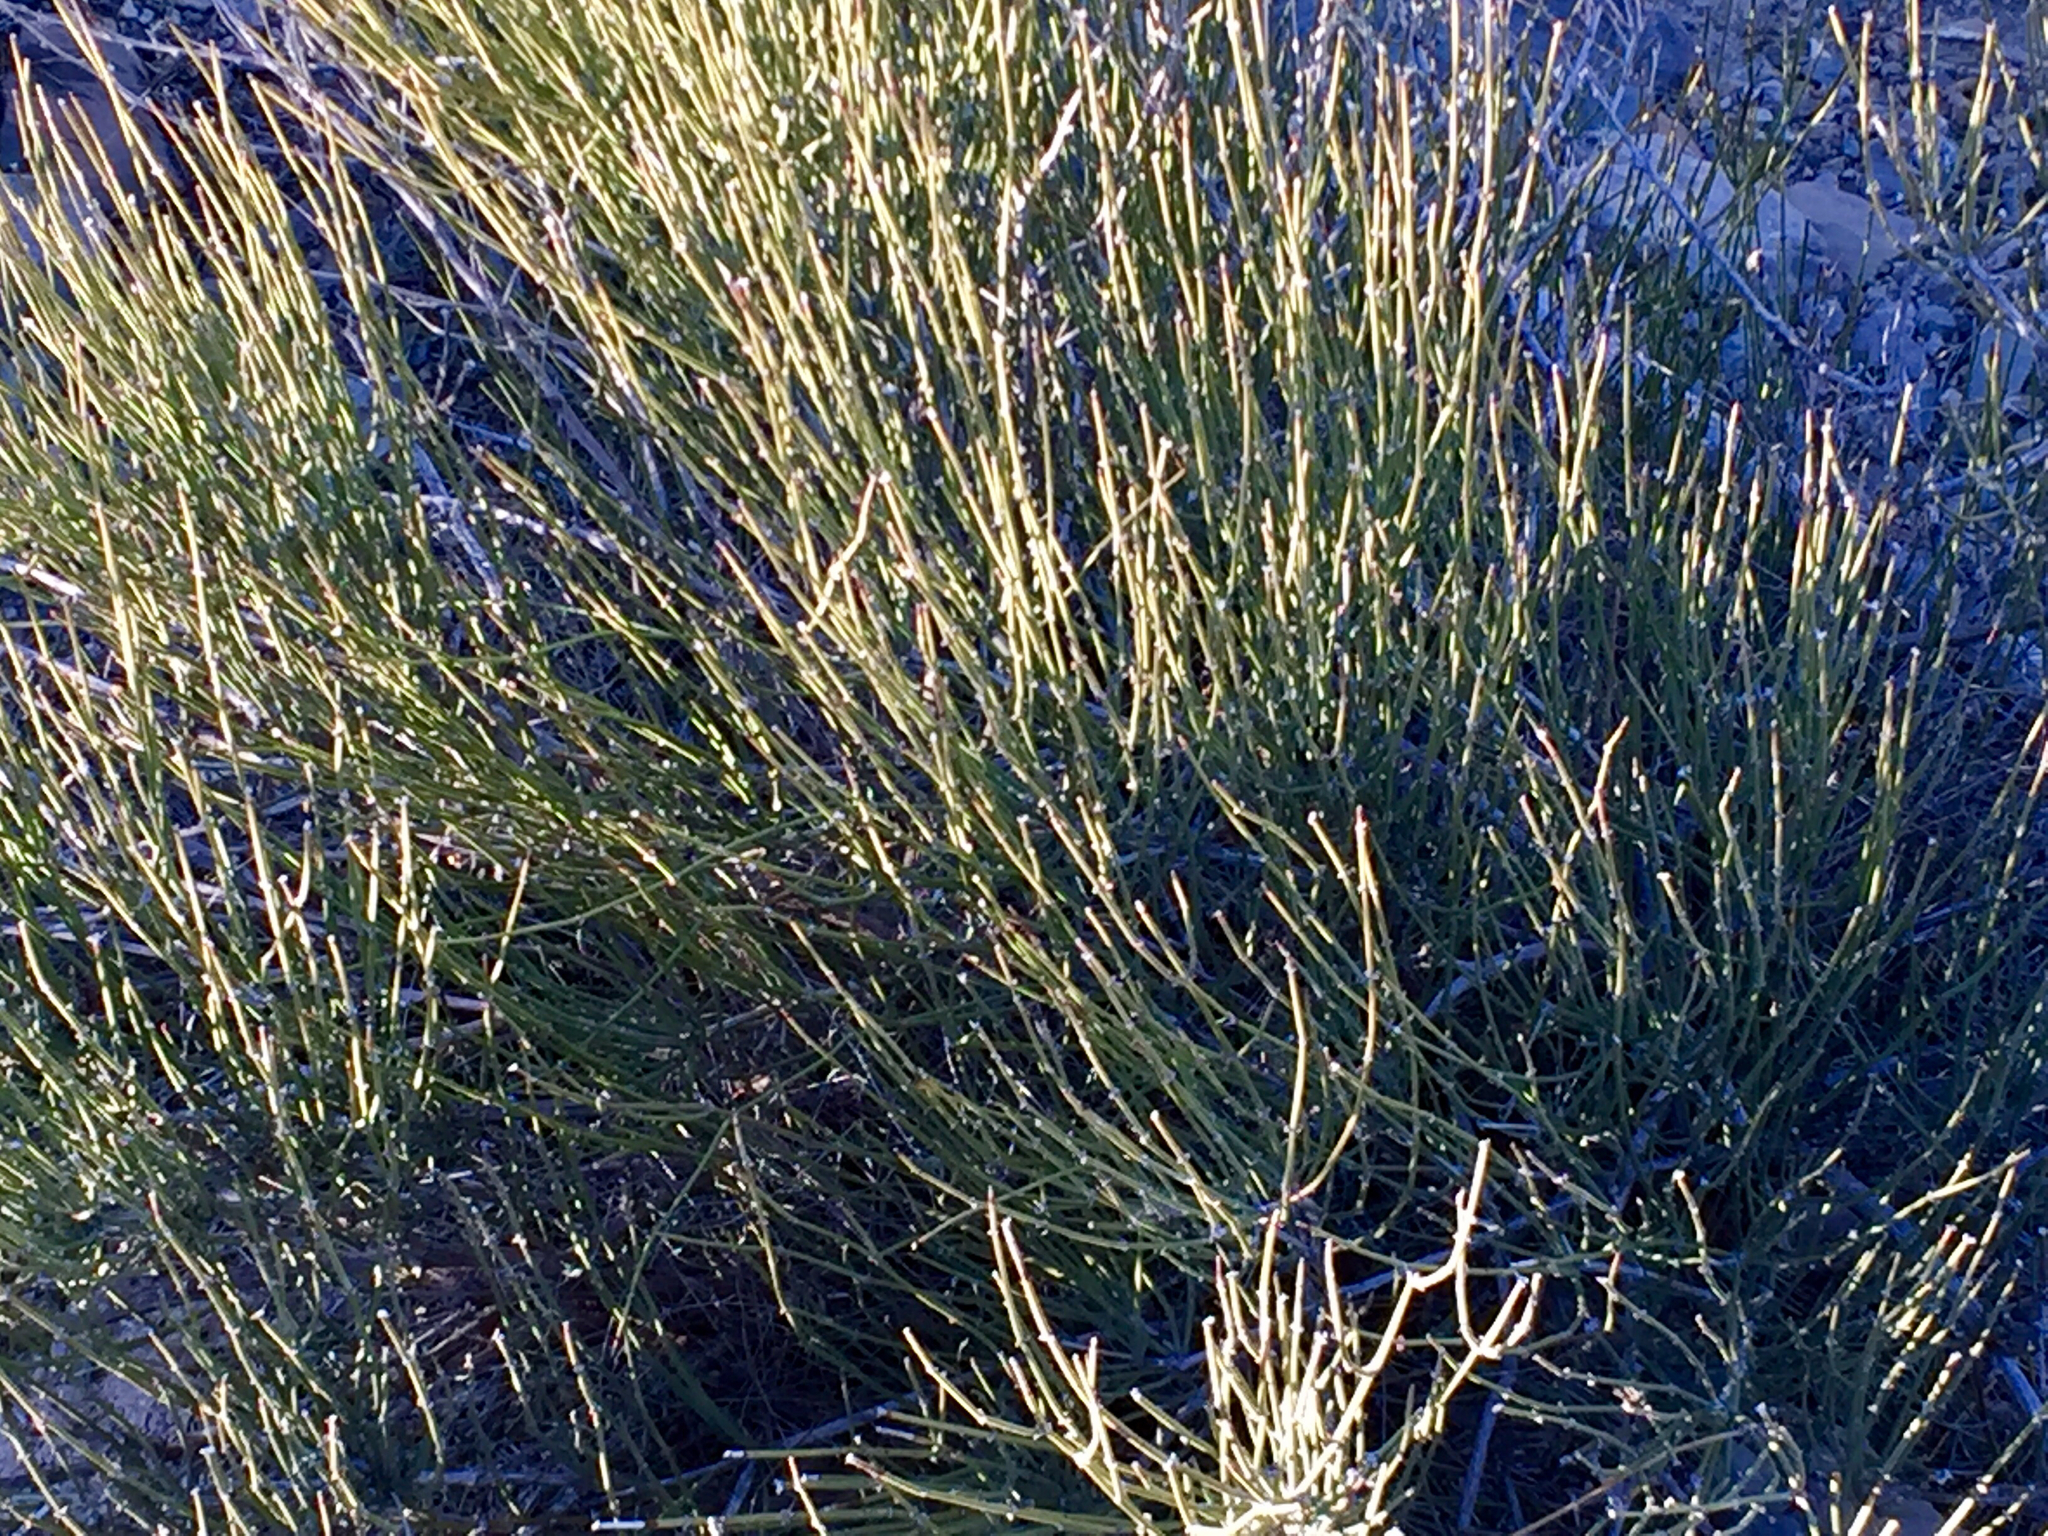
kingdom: Plantae
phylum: Tracheophyta
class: Gnetopsida
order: Ephedrales
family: Ephedraceae
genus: Ephedra
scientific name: Ephedra torreyana
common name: Torrey ephedra
